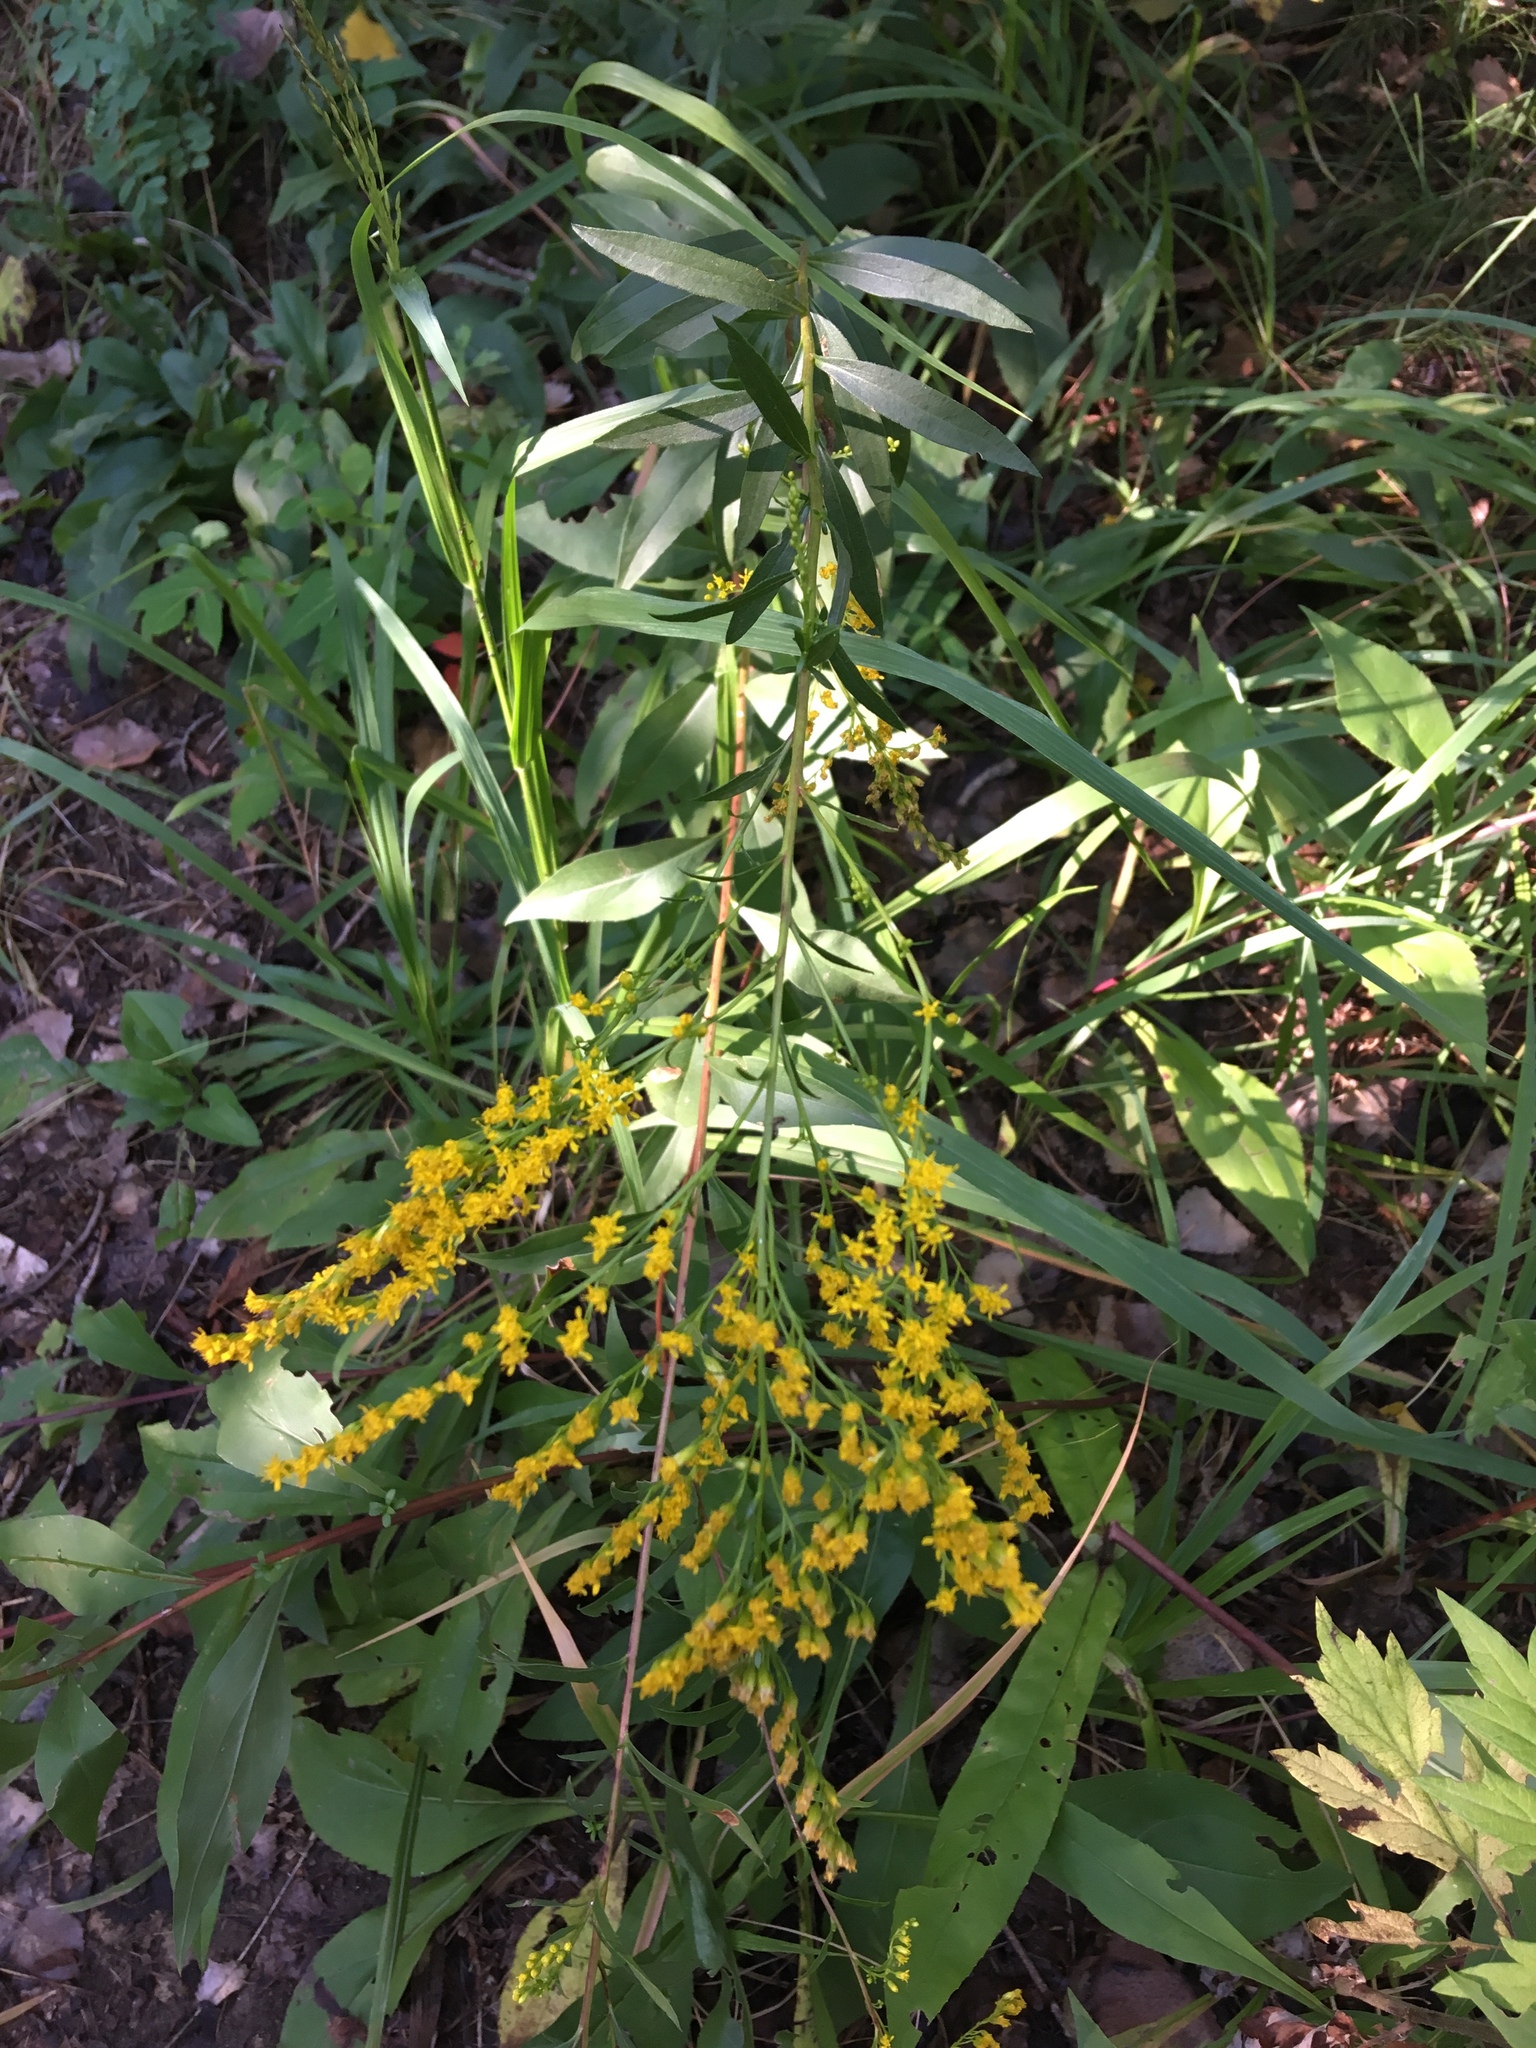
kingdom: Plantae
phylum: Tracheophyta
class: Magnoliopsida
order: Asterales
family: Asteraceae
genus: Solidago
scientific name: Solidago juncea
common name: Early goldenrod
